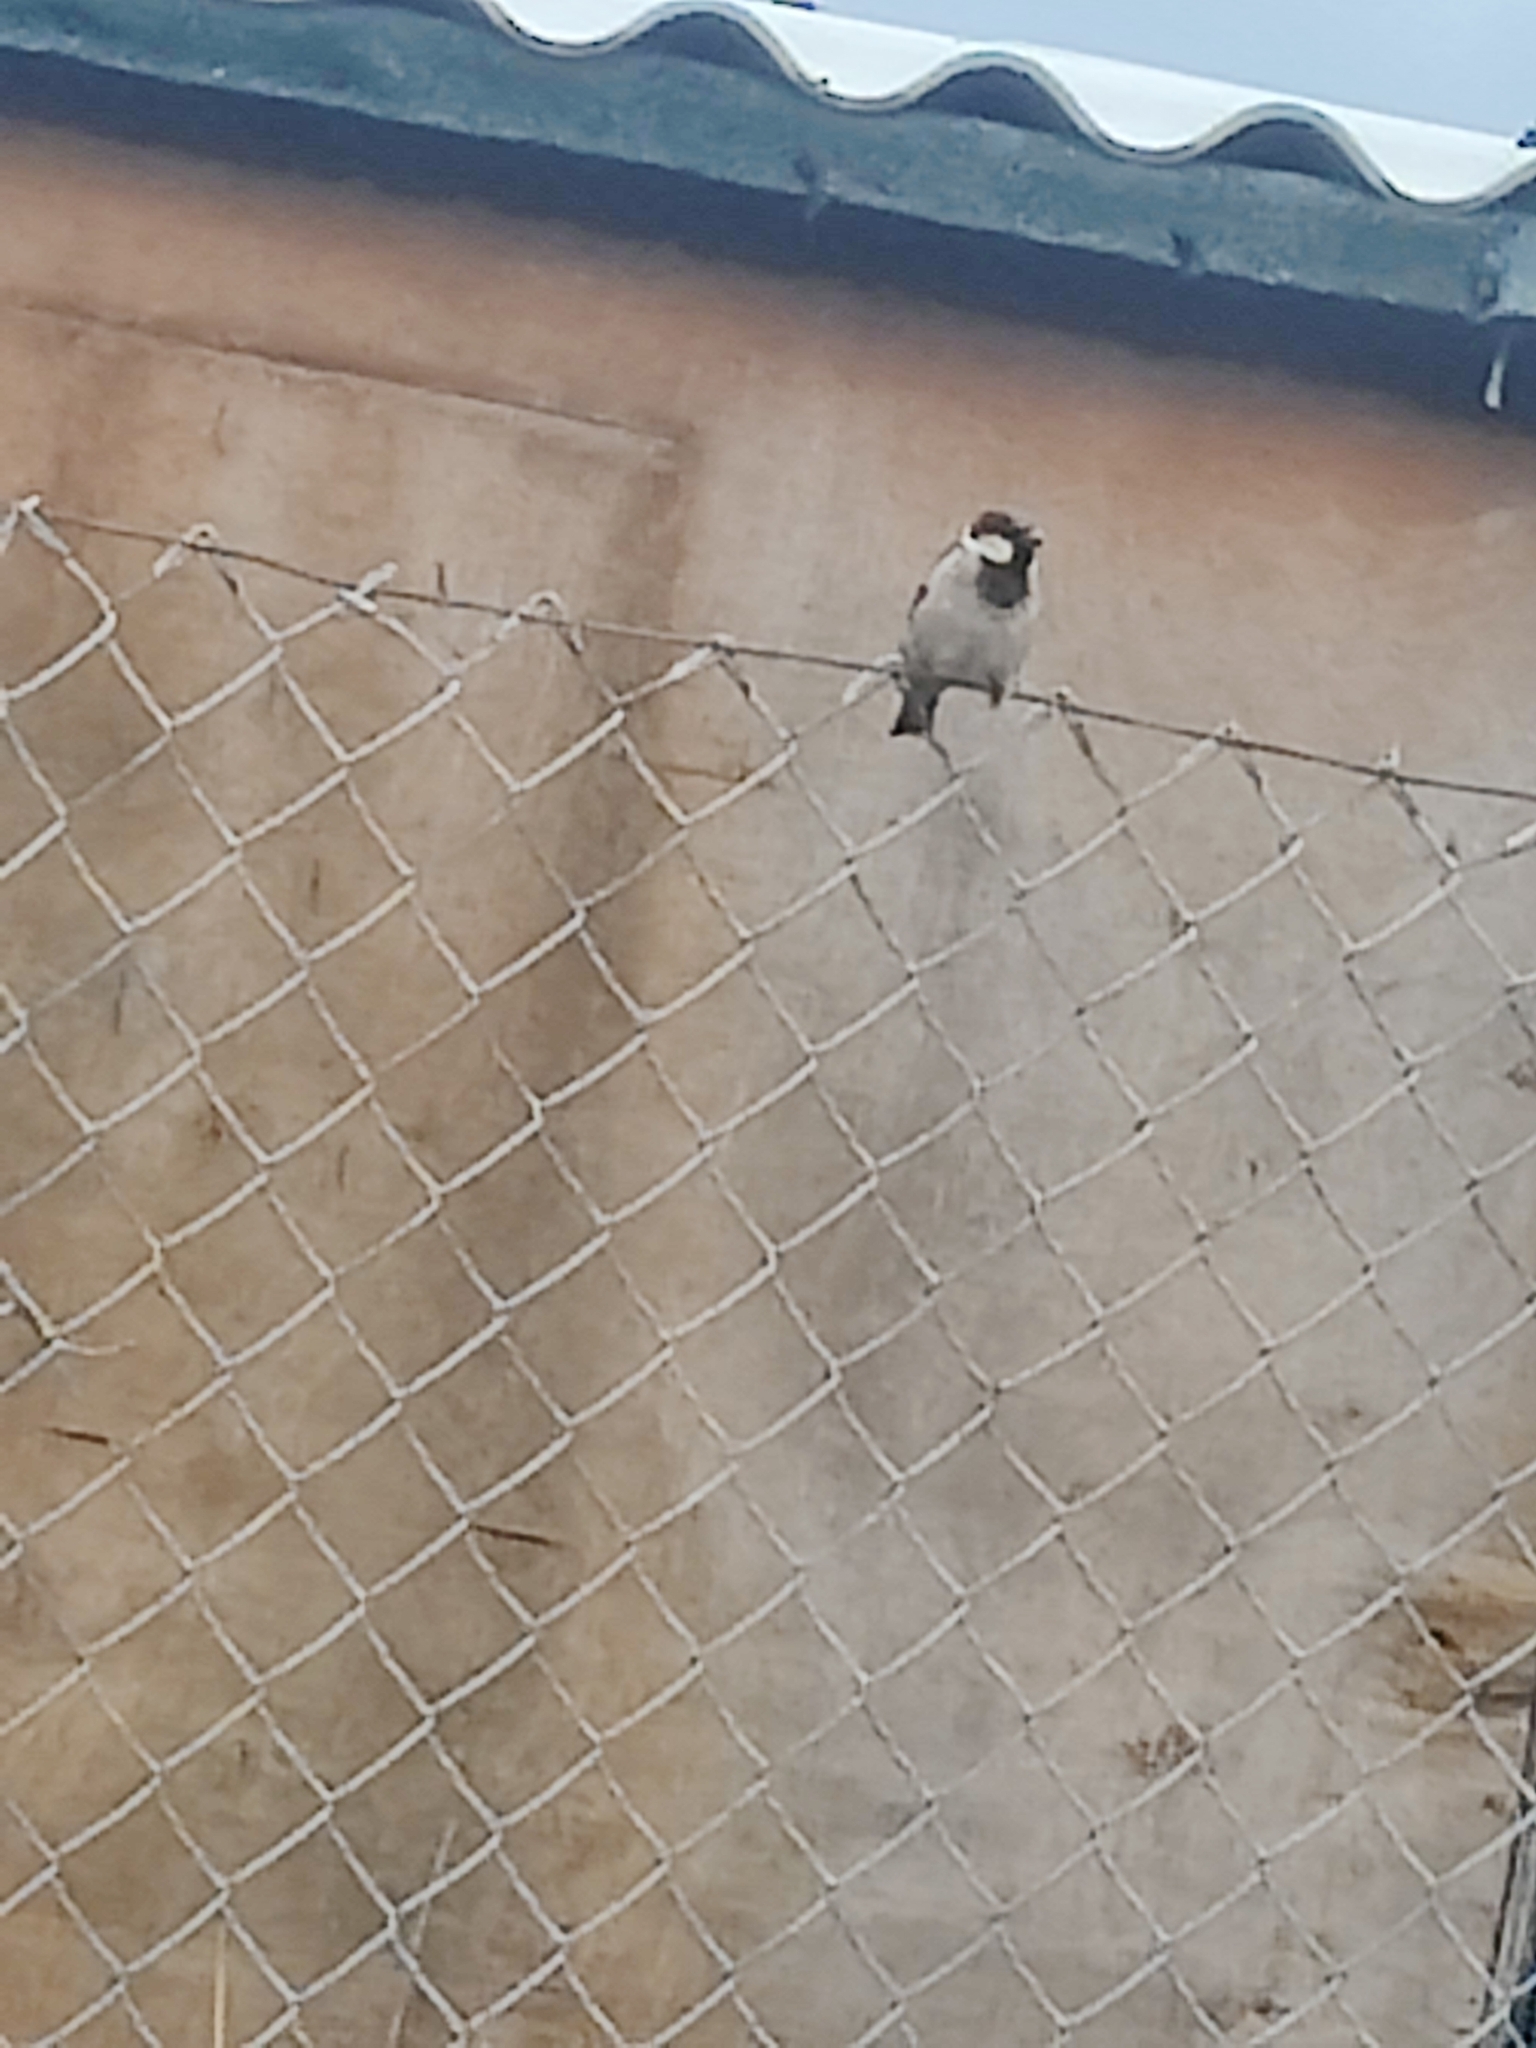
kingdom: Animalia
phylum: Chordata
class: Aves
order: Passeriformes
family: Passeridae
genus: Passer
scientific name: Passer domesticus
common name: House sparrow
